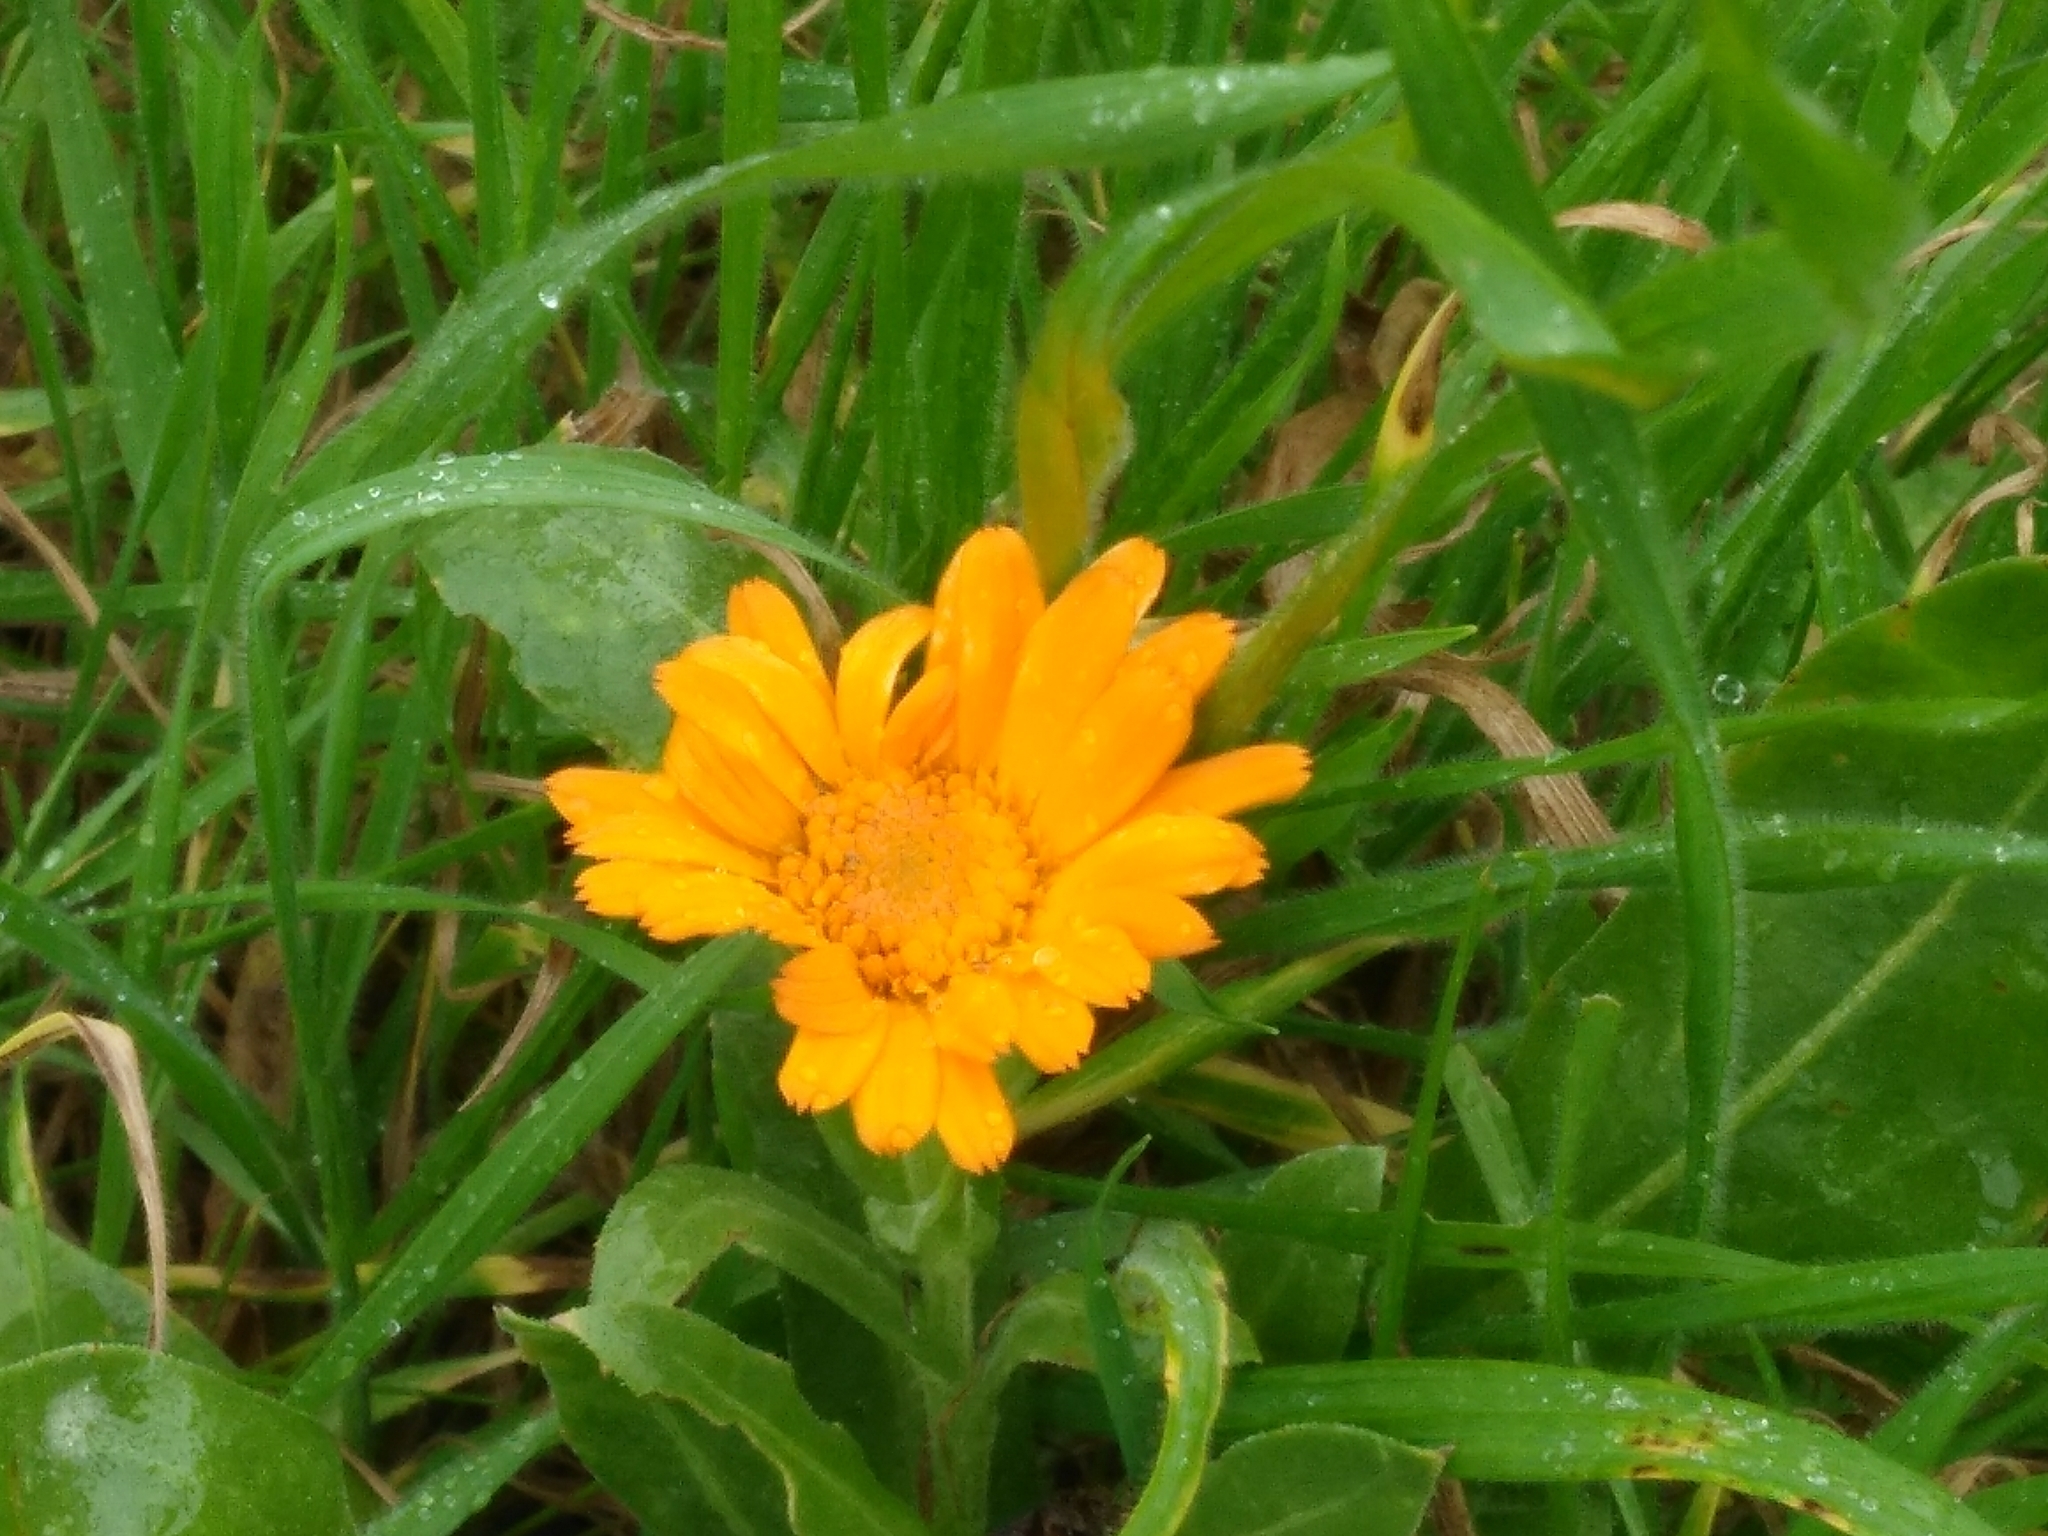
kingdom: Plantae
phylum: Tracheophyta
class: Magnoliopsida
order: Asterales
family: Asteraceae
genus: Calendula
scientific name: Calendula officinalis
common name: Pot marigold
